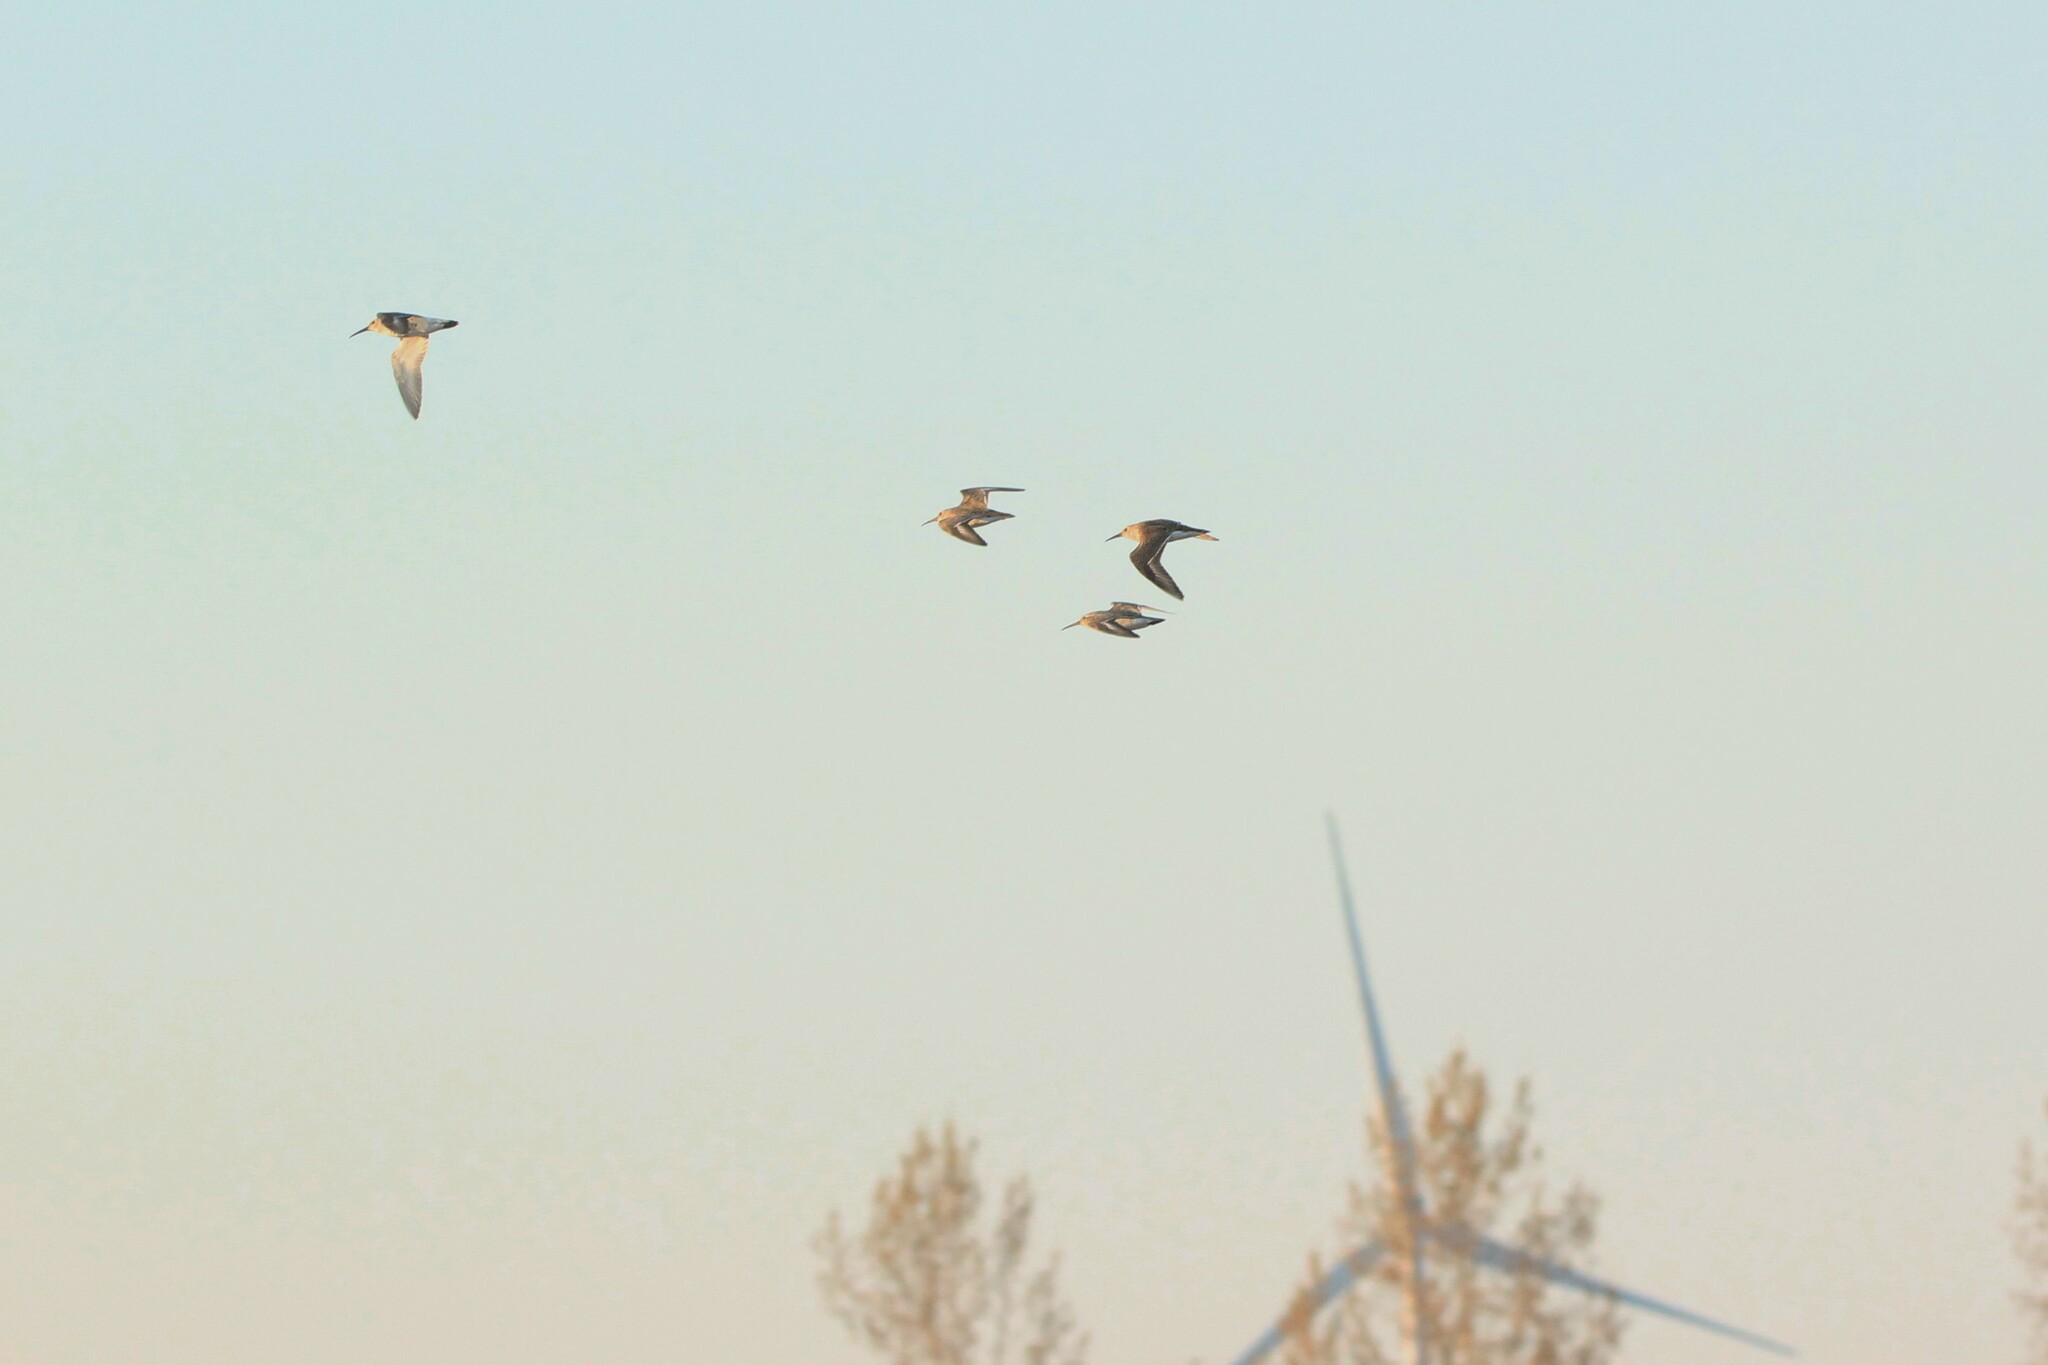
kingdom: Animalia
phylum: Chordata
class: Aves
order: Charadriiformes
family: Scolopacidae
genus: Calidris
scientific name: Calidris alpina
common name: Dunlin
